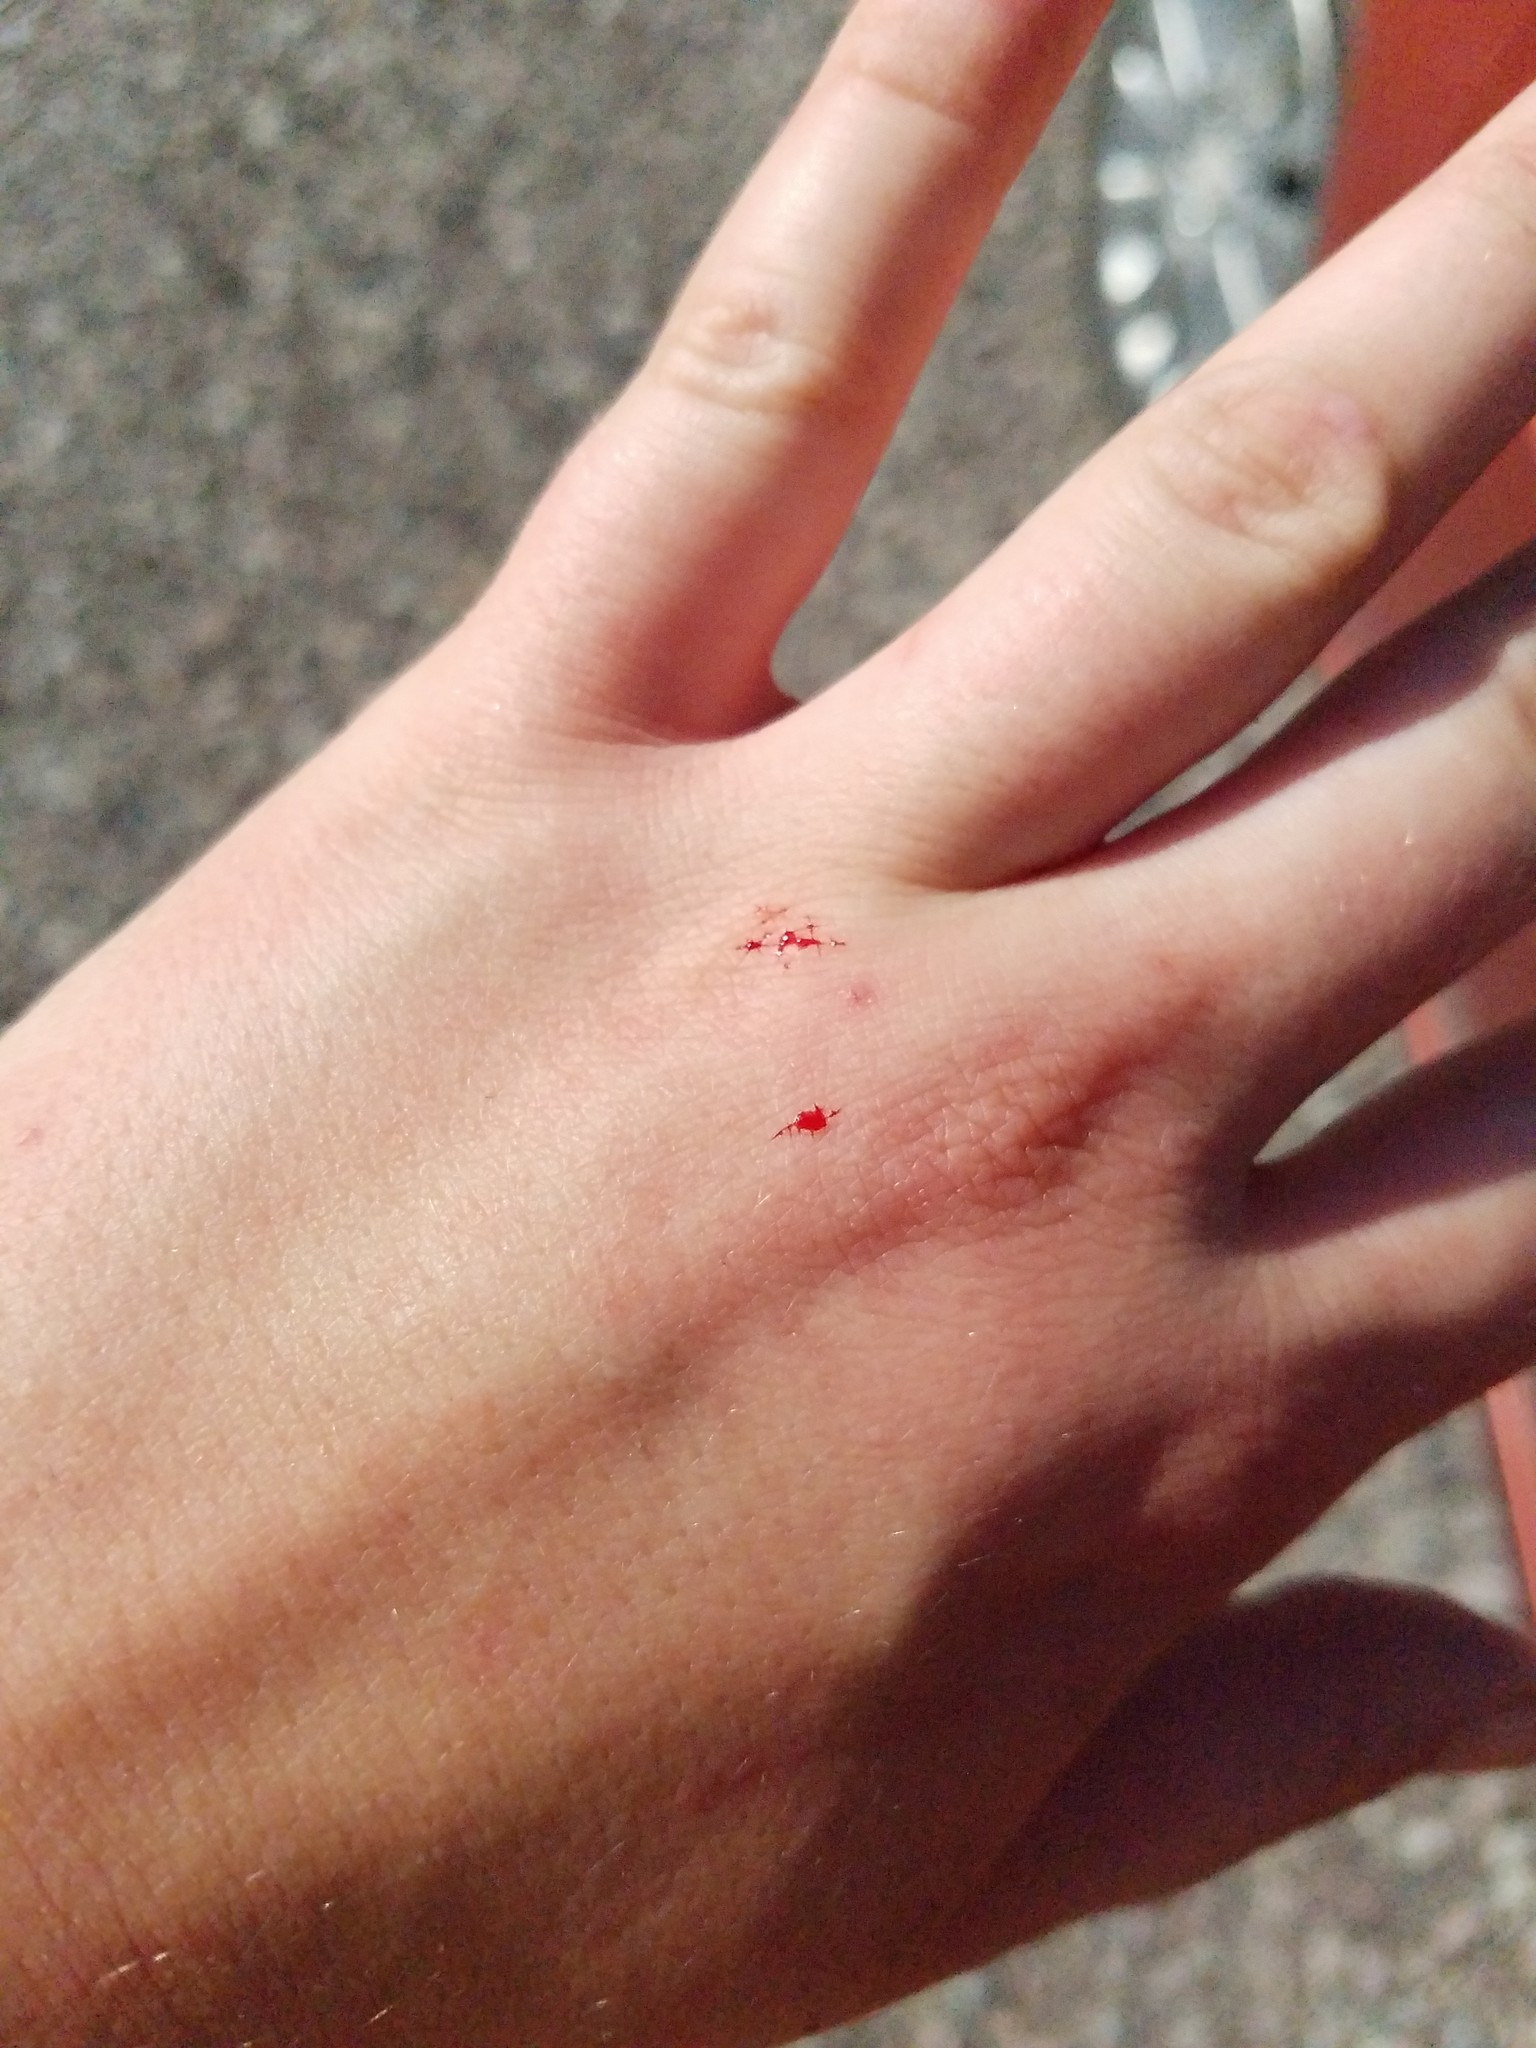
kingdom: Animalia
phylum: Chordata
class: Squamata
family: Colubridae
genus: Thamnophis
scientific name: Thamnophis sirtalis
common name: Common garter snake
